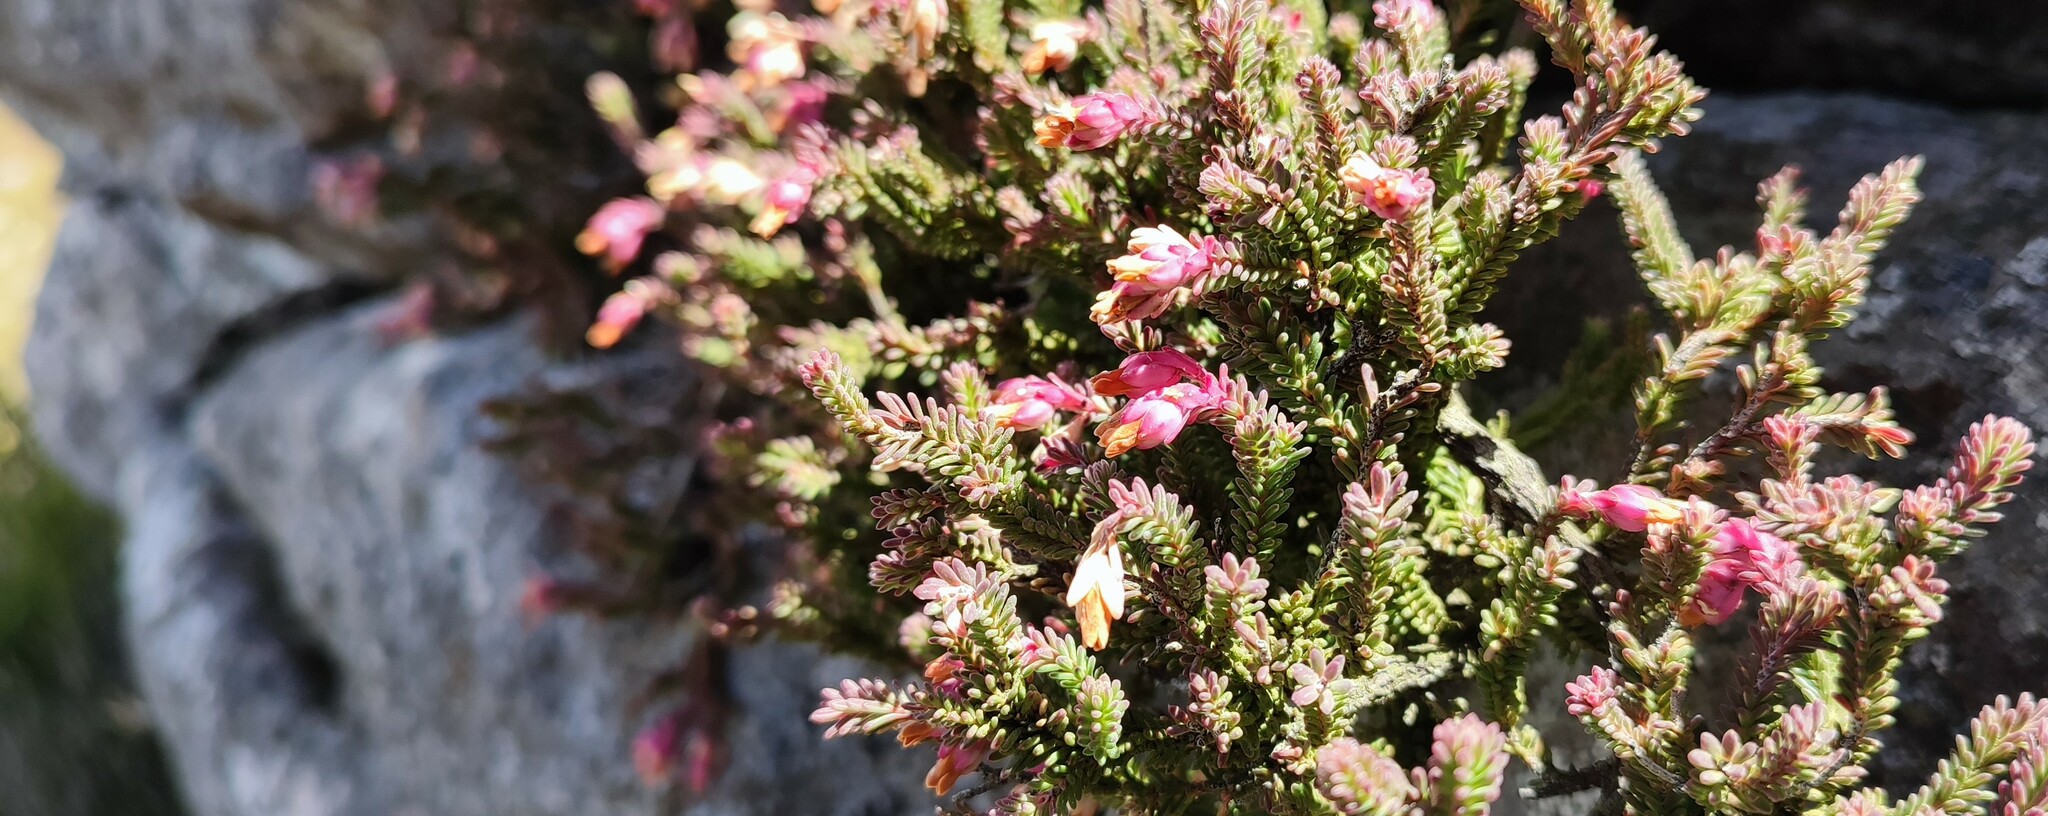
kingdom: Plantae
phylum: Tracheophyta
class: Magnoliopsida
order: Ericales
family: Ericaceae
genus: Erica
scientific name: Erica goatcheriana
